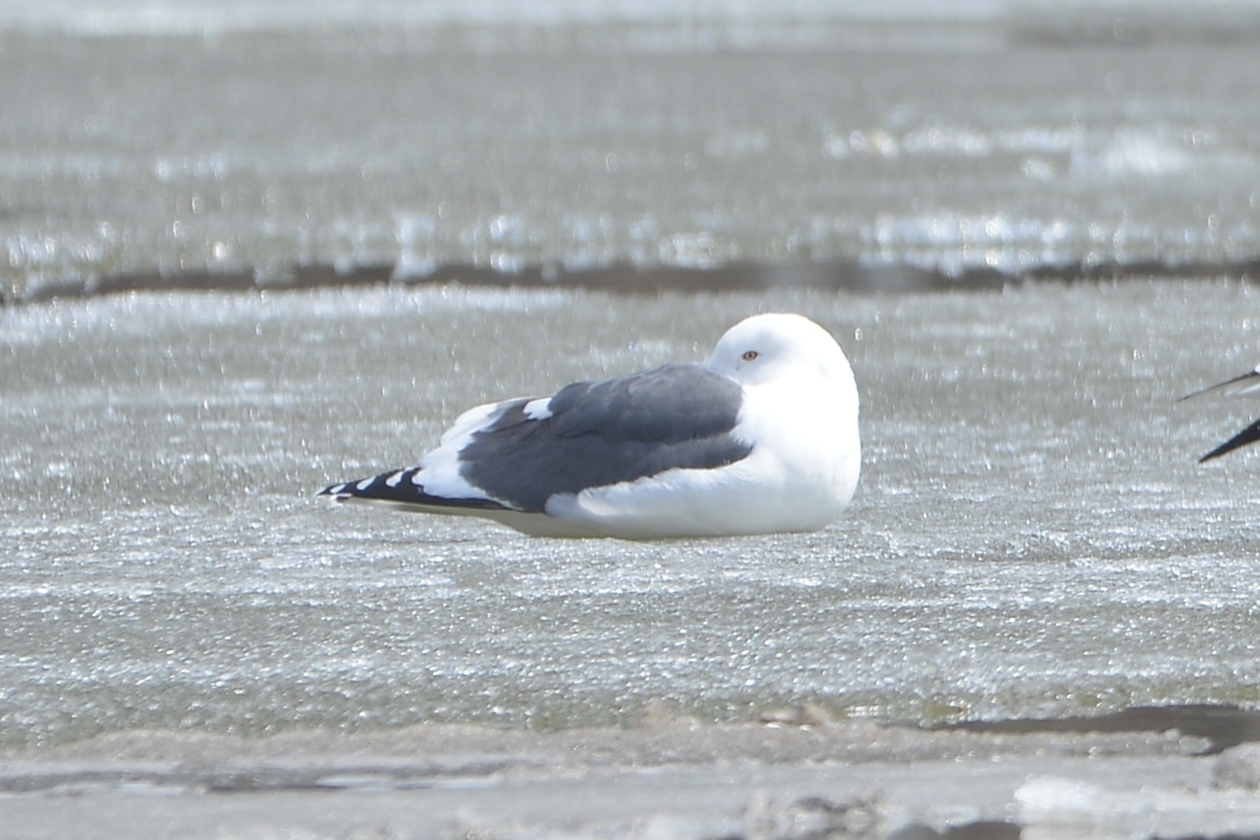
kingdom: Animalia
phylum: Chordata
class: Aves
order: Charadriiformes
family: Laridae
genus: Larus
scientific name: Larus schistisagus
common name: Slaty-backed gull
